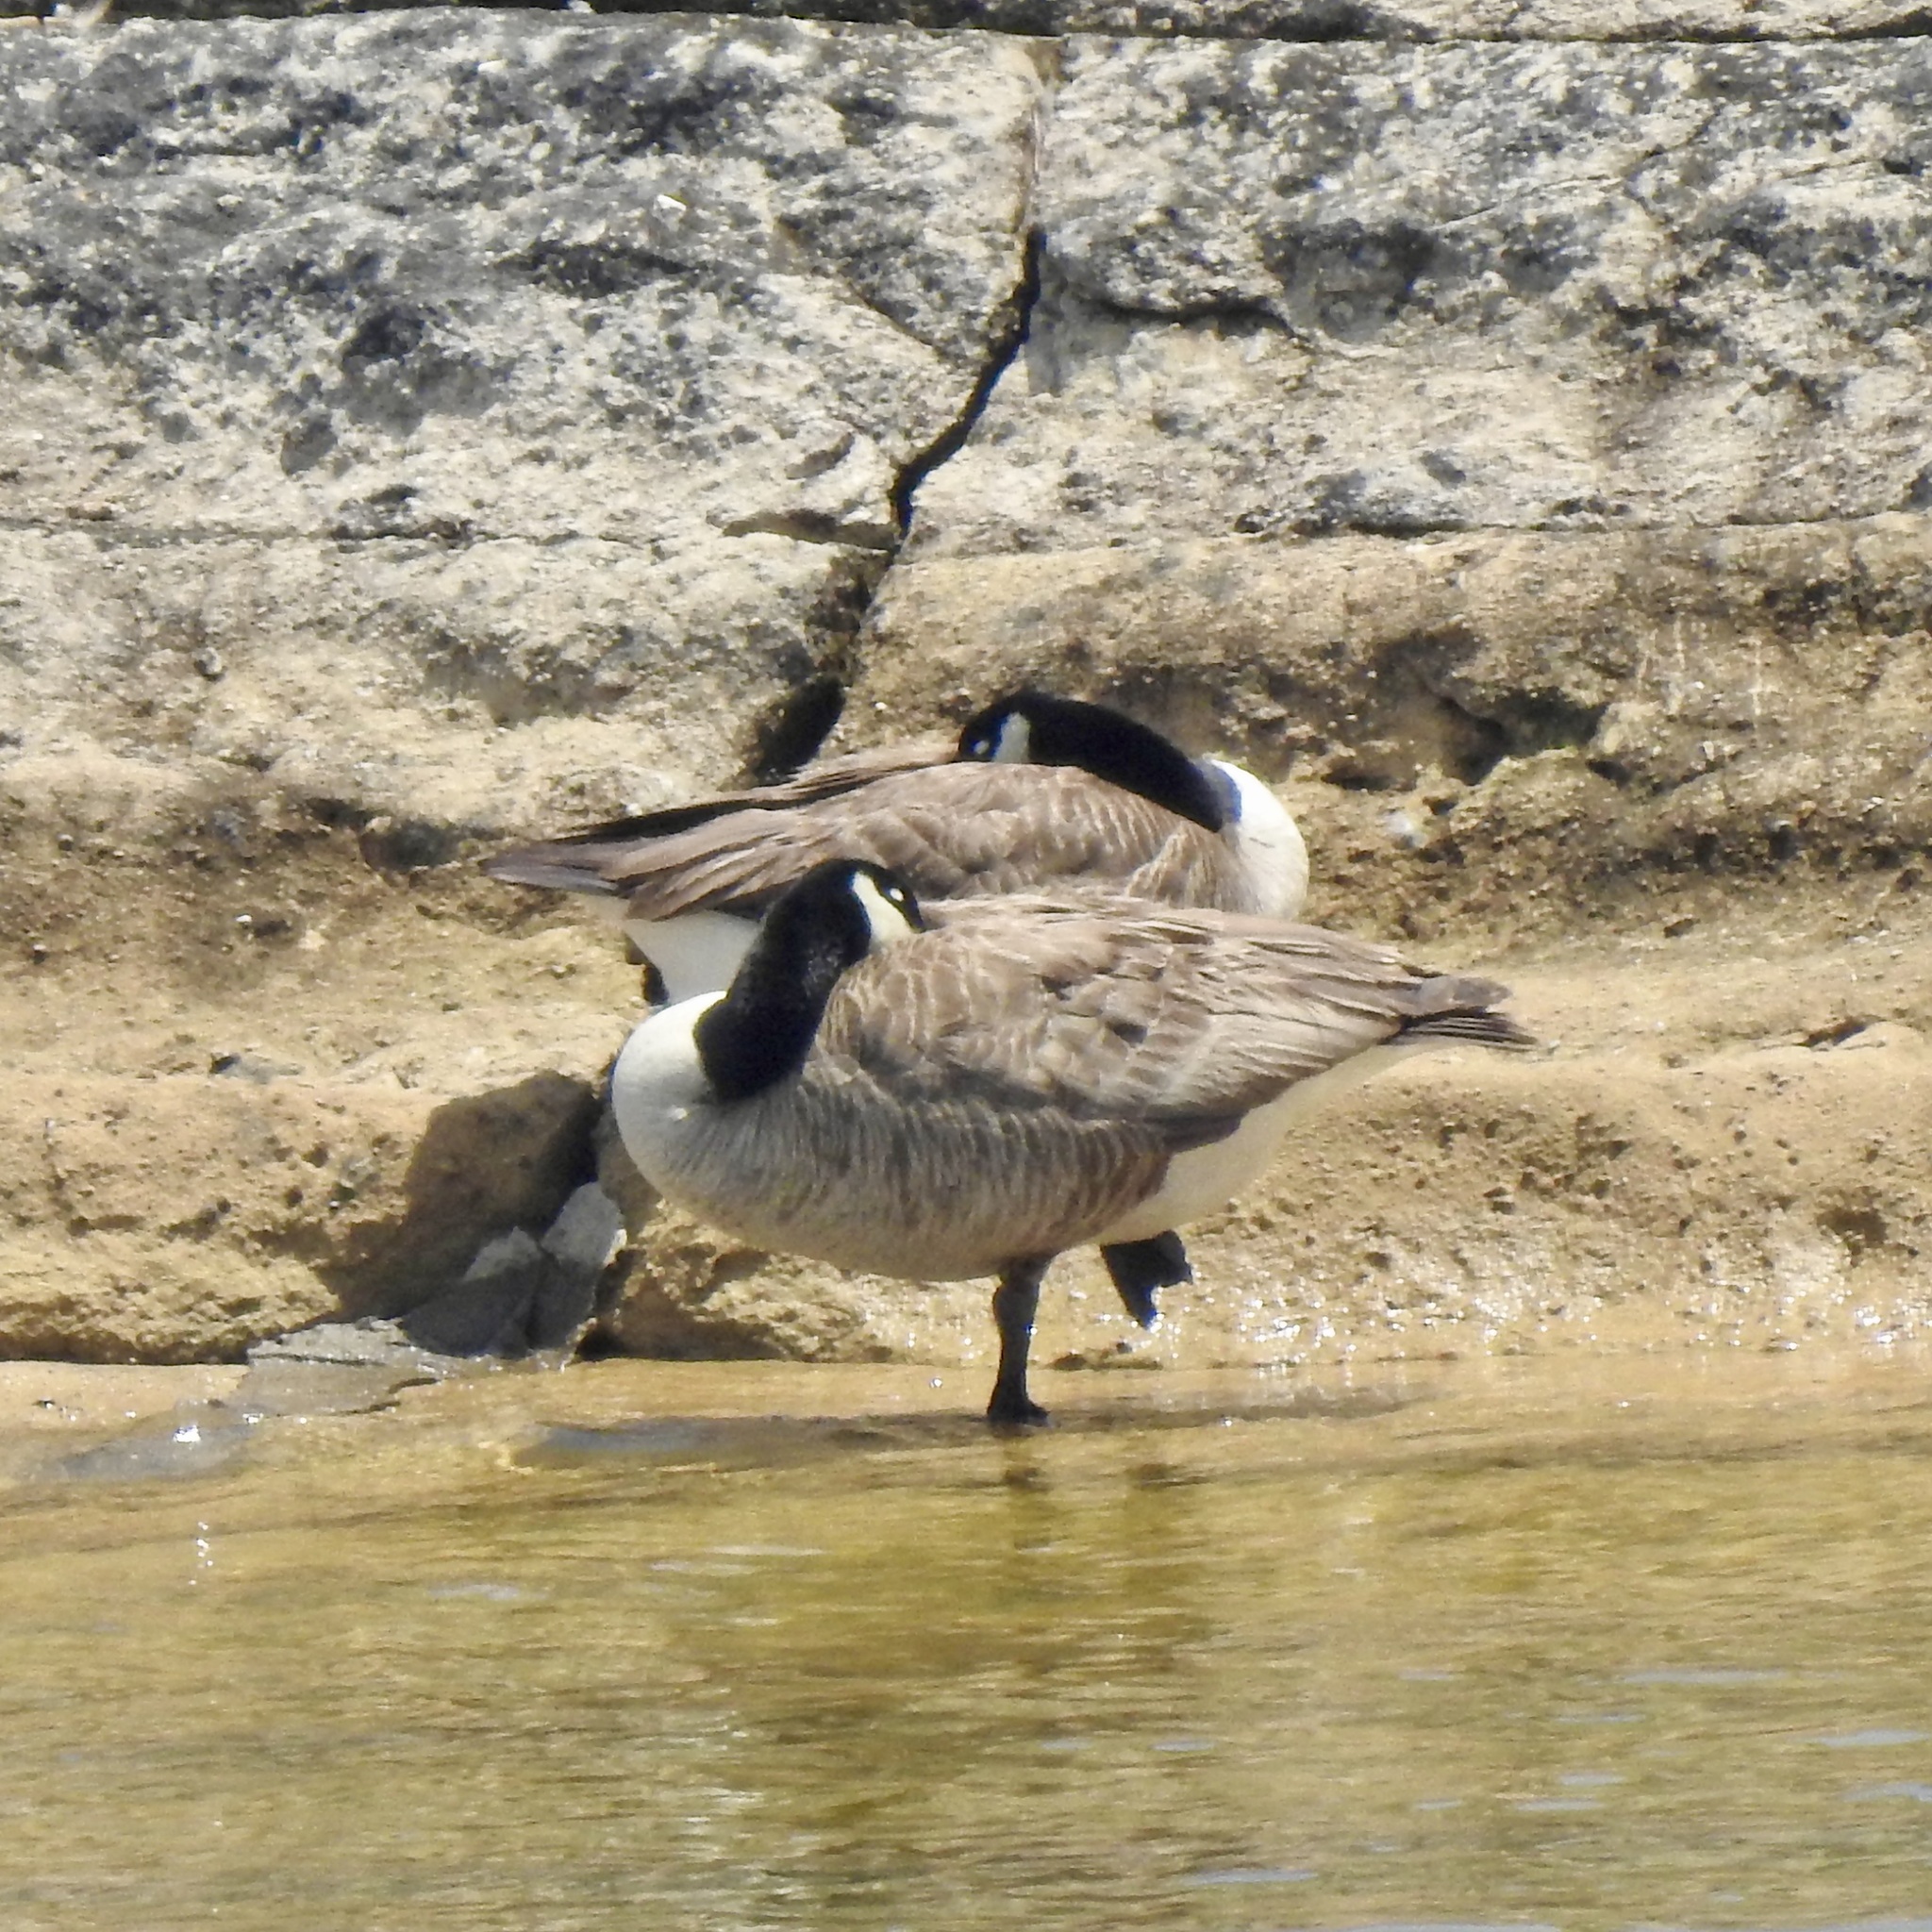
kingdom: Animalia
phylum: Chordata
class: Aves
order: Anseriformes
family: Anatidae
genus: Branta
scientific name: Branta canadensis
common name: Canada goose
